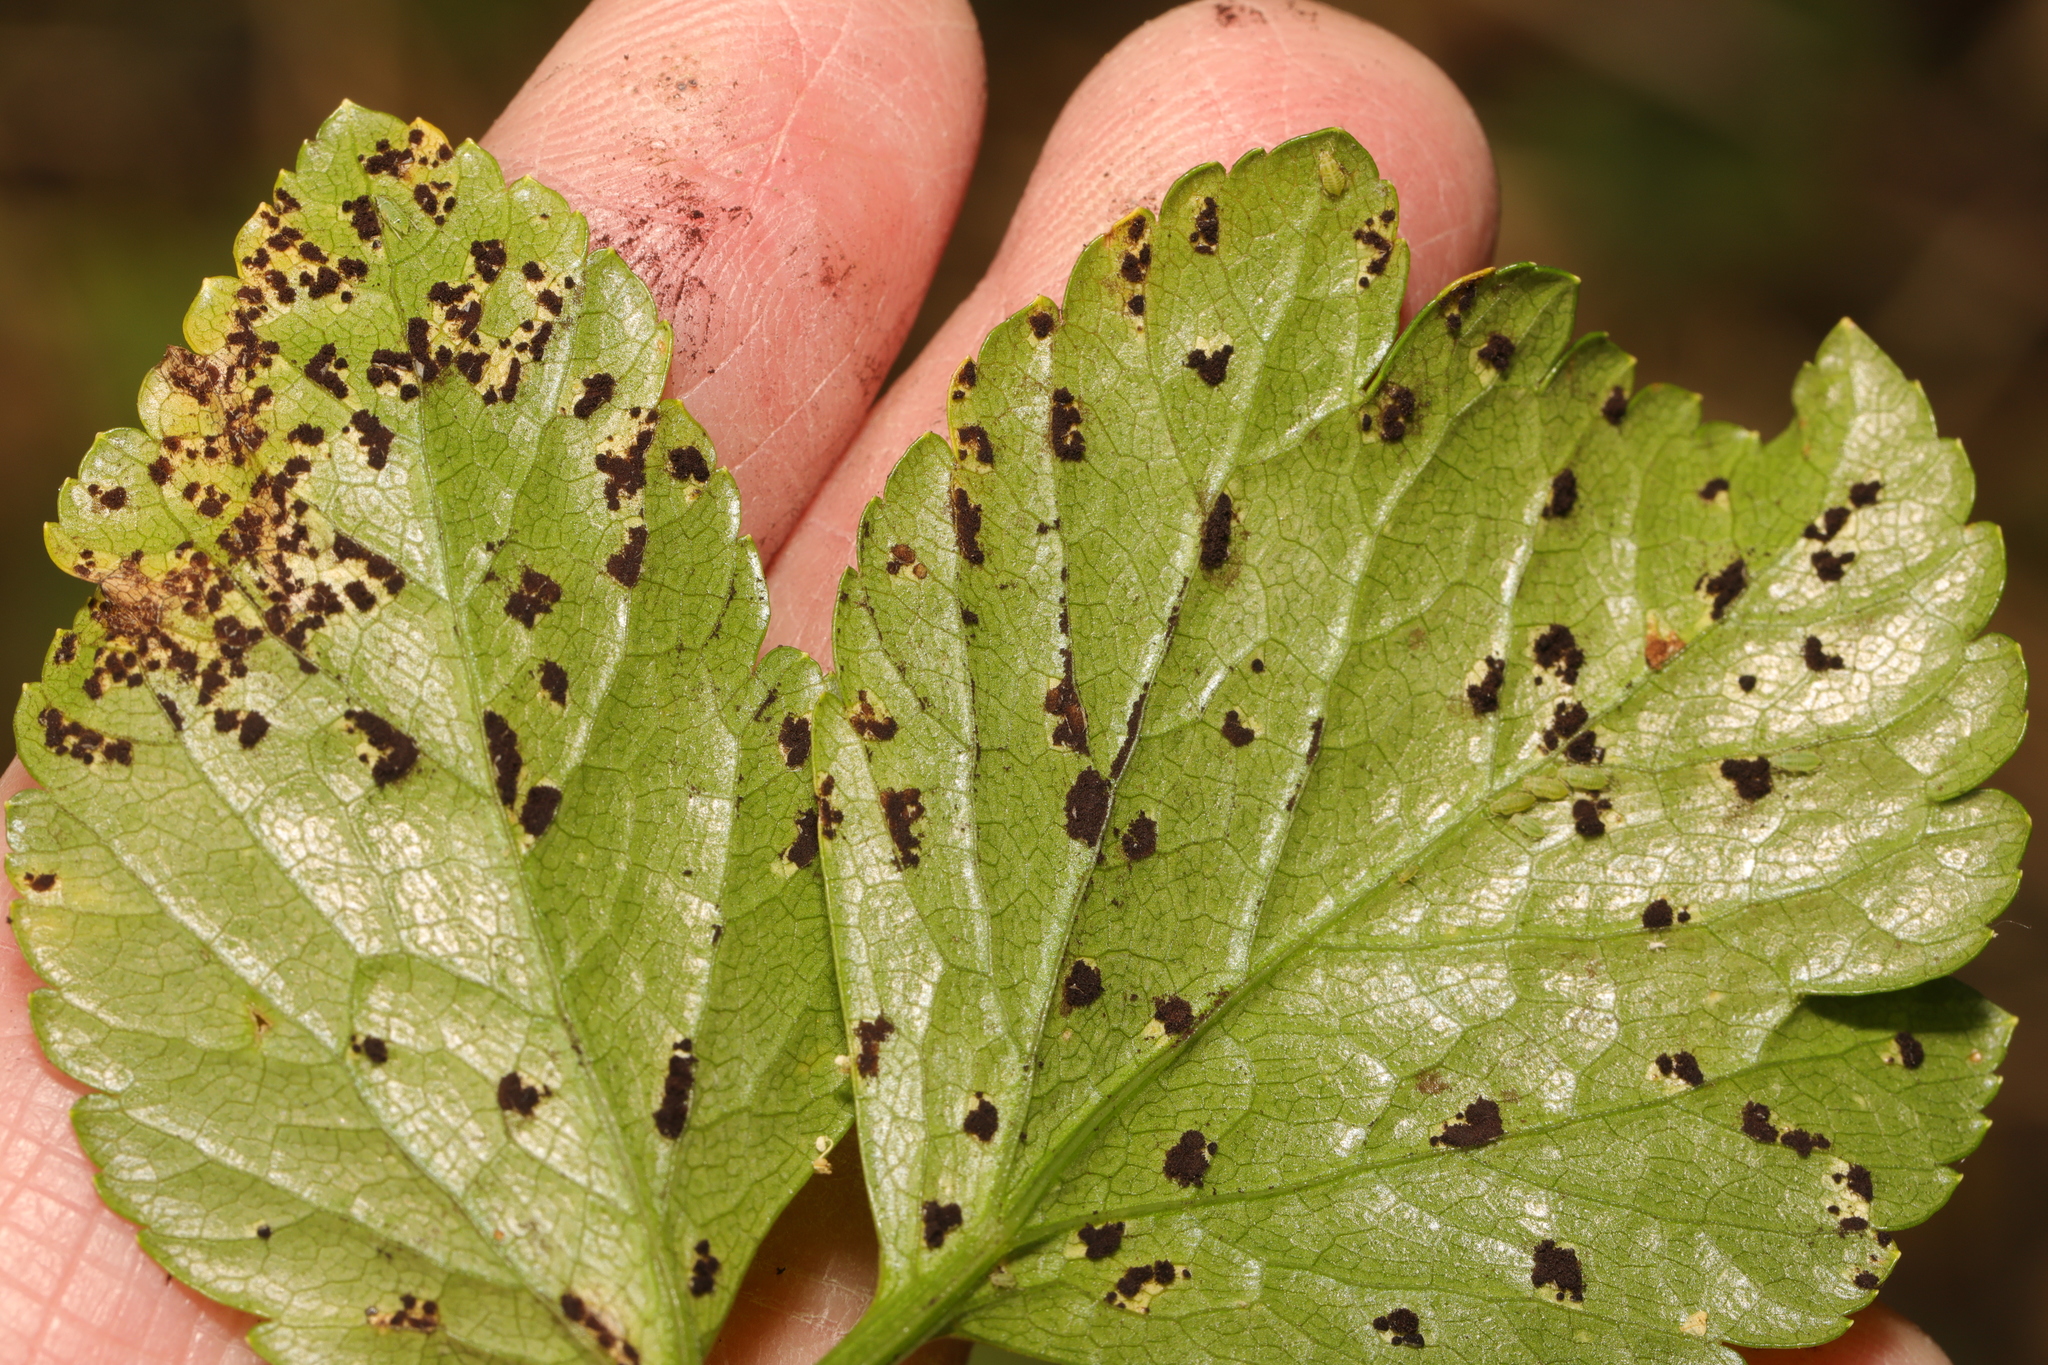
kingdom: Fungi
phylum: Basidiomycota
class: Pucciniomycetes
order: Pucciniales
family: Pucciniaceae
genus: Puccinia
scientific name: Puccinia smyrnii
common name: Alexanders rust
